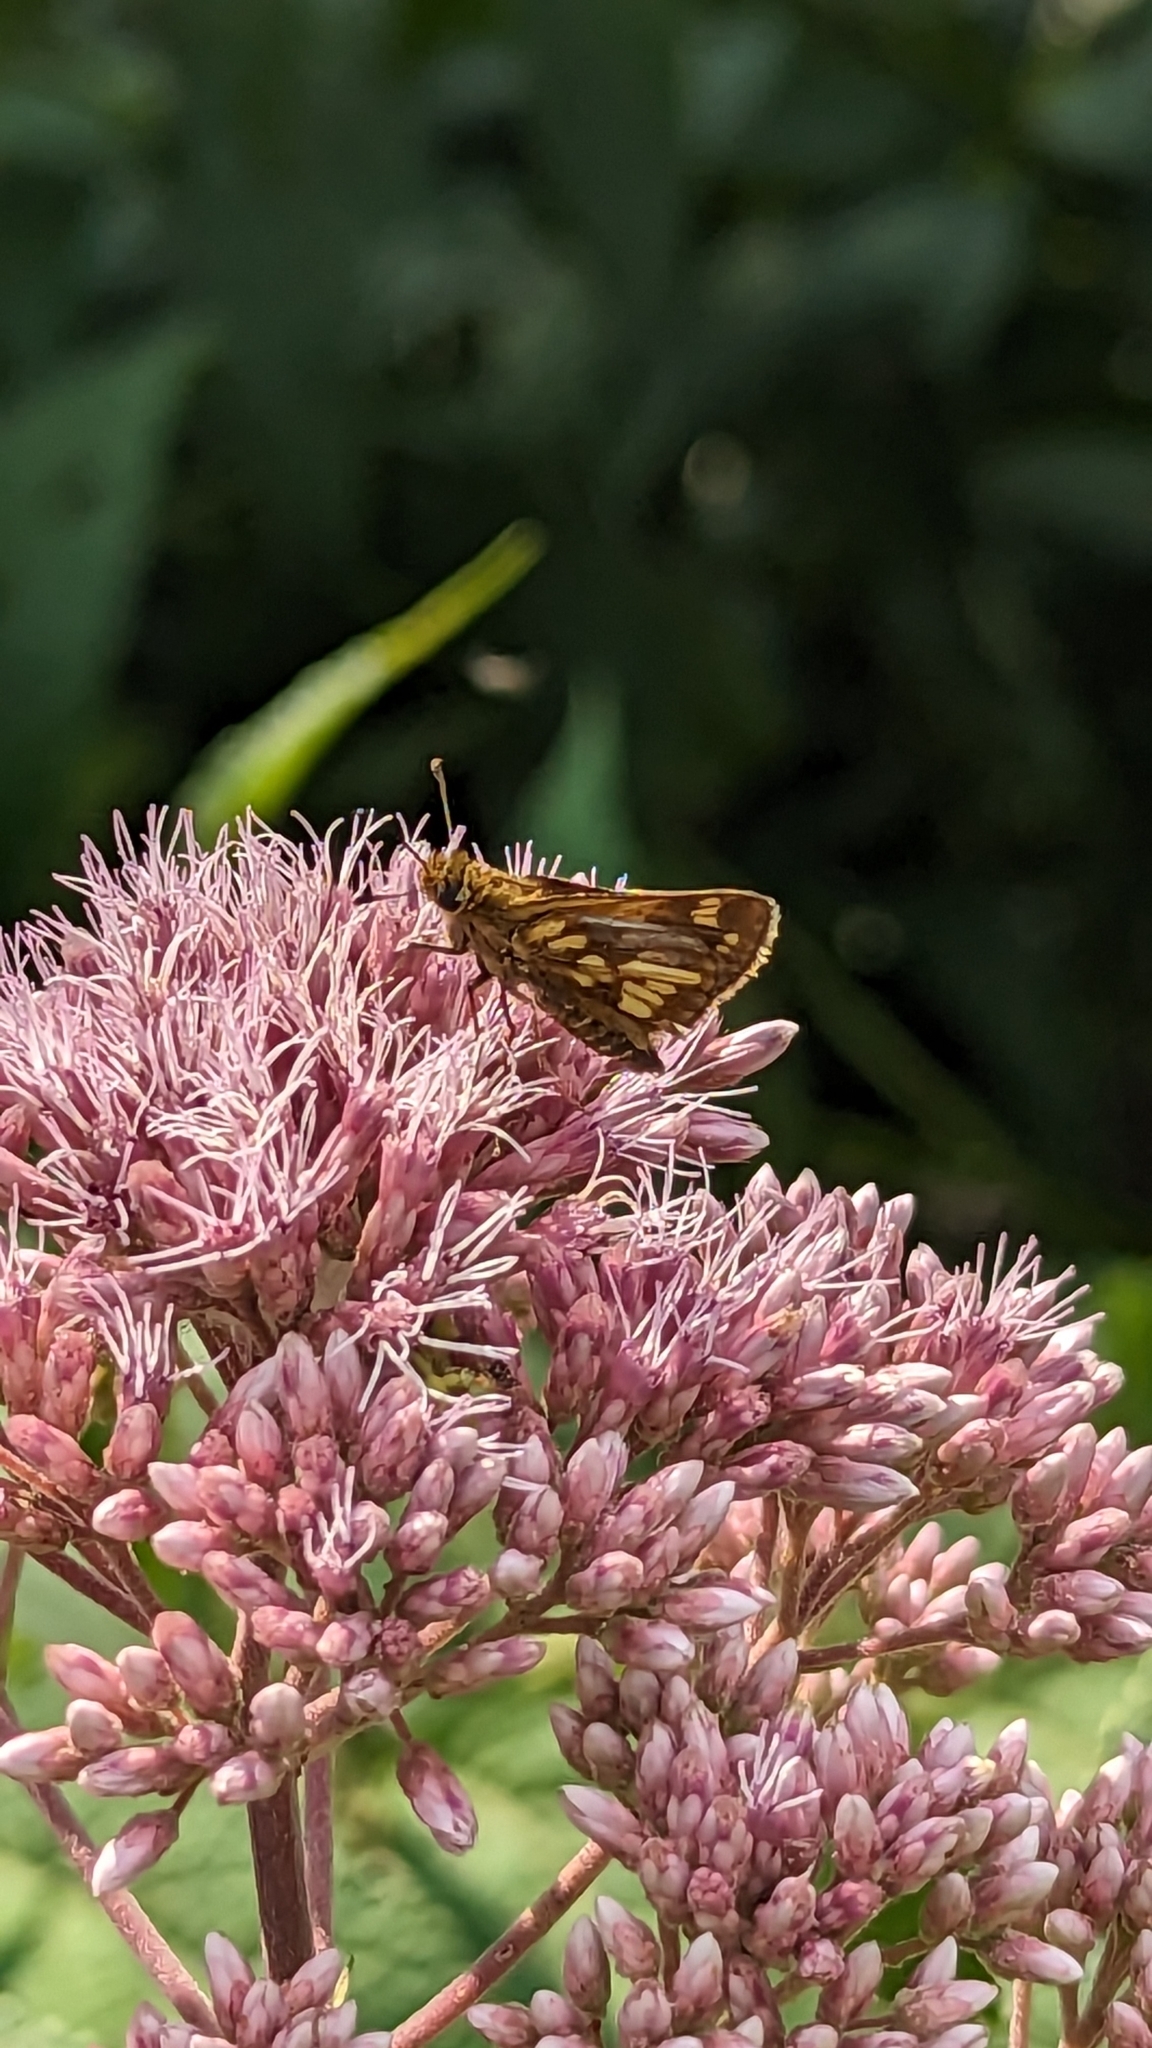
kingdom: Animalia
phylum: Arthropoda
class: Insecta
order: Lepidoptera
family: Hesperiidae
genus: Polites
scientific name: Polites coras
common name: Peck's skipper
